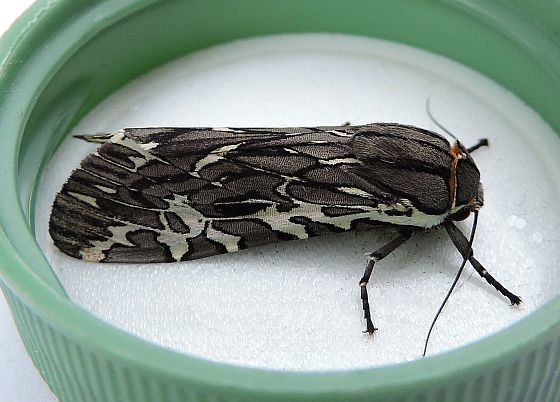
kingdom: Animalia
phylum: Arthropoda
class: Insecta
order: Lepidoptera
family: Erebidae
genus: Arachnis
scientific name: Arachnis aulaea
